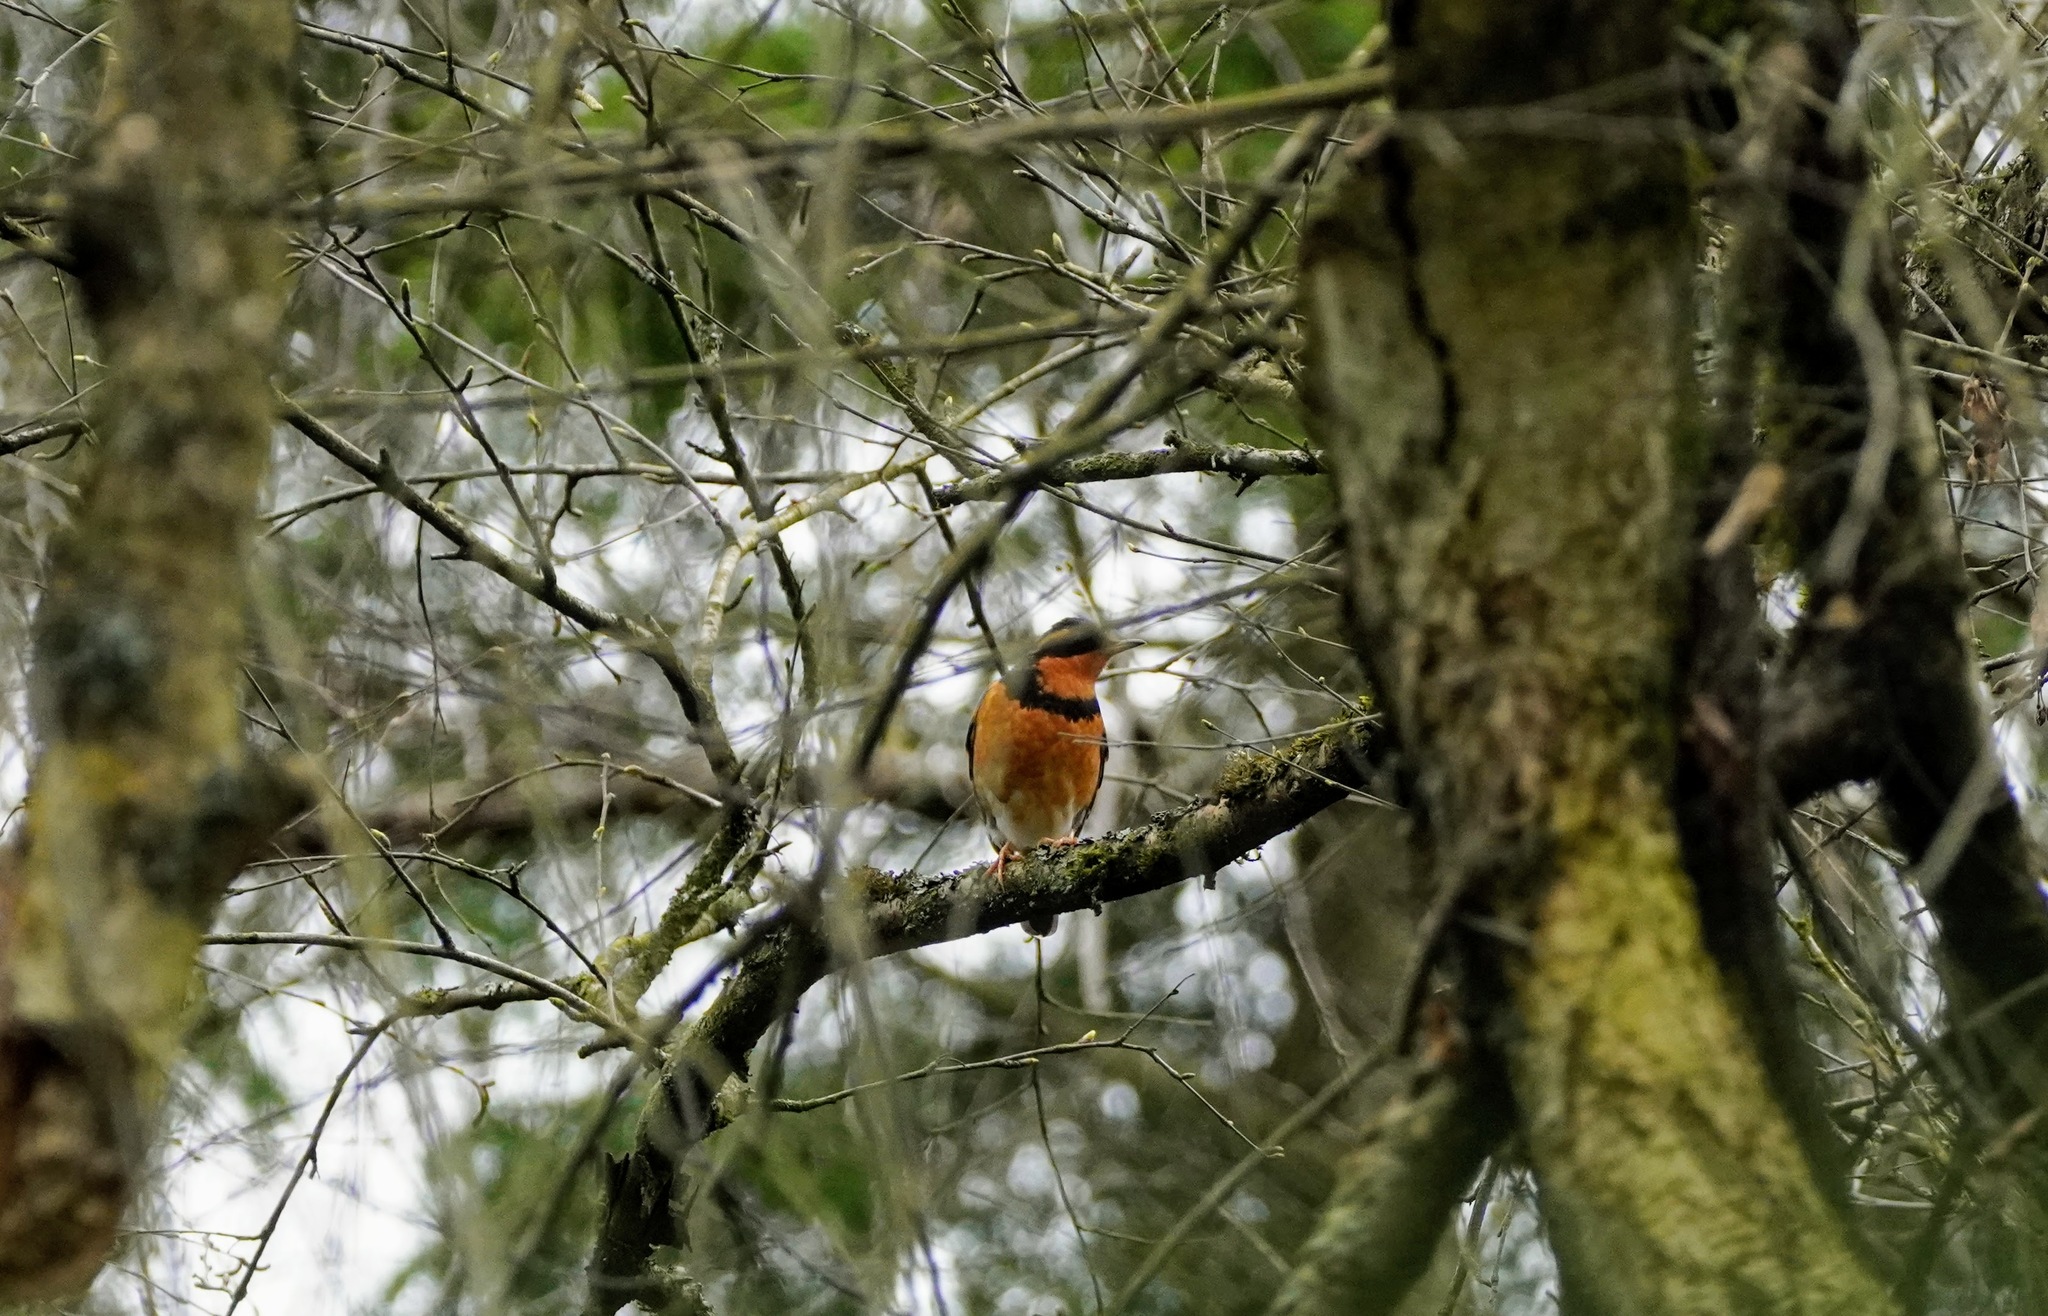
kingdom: Animalia
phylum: Chordata
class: Aves
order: Passeriformes
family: Turdidae
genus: Ixoreus
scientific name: Ixoreus naevius
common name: Varied thrush
